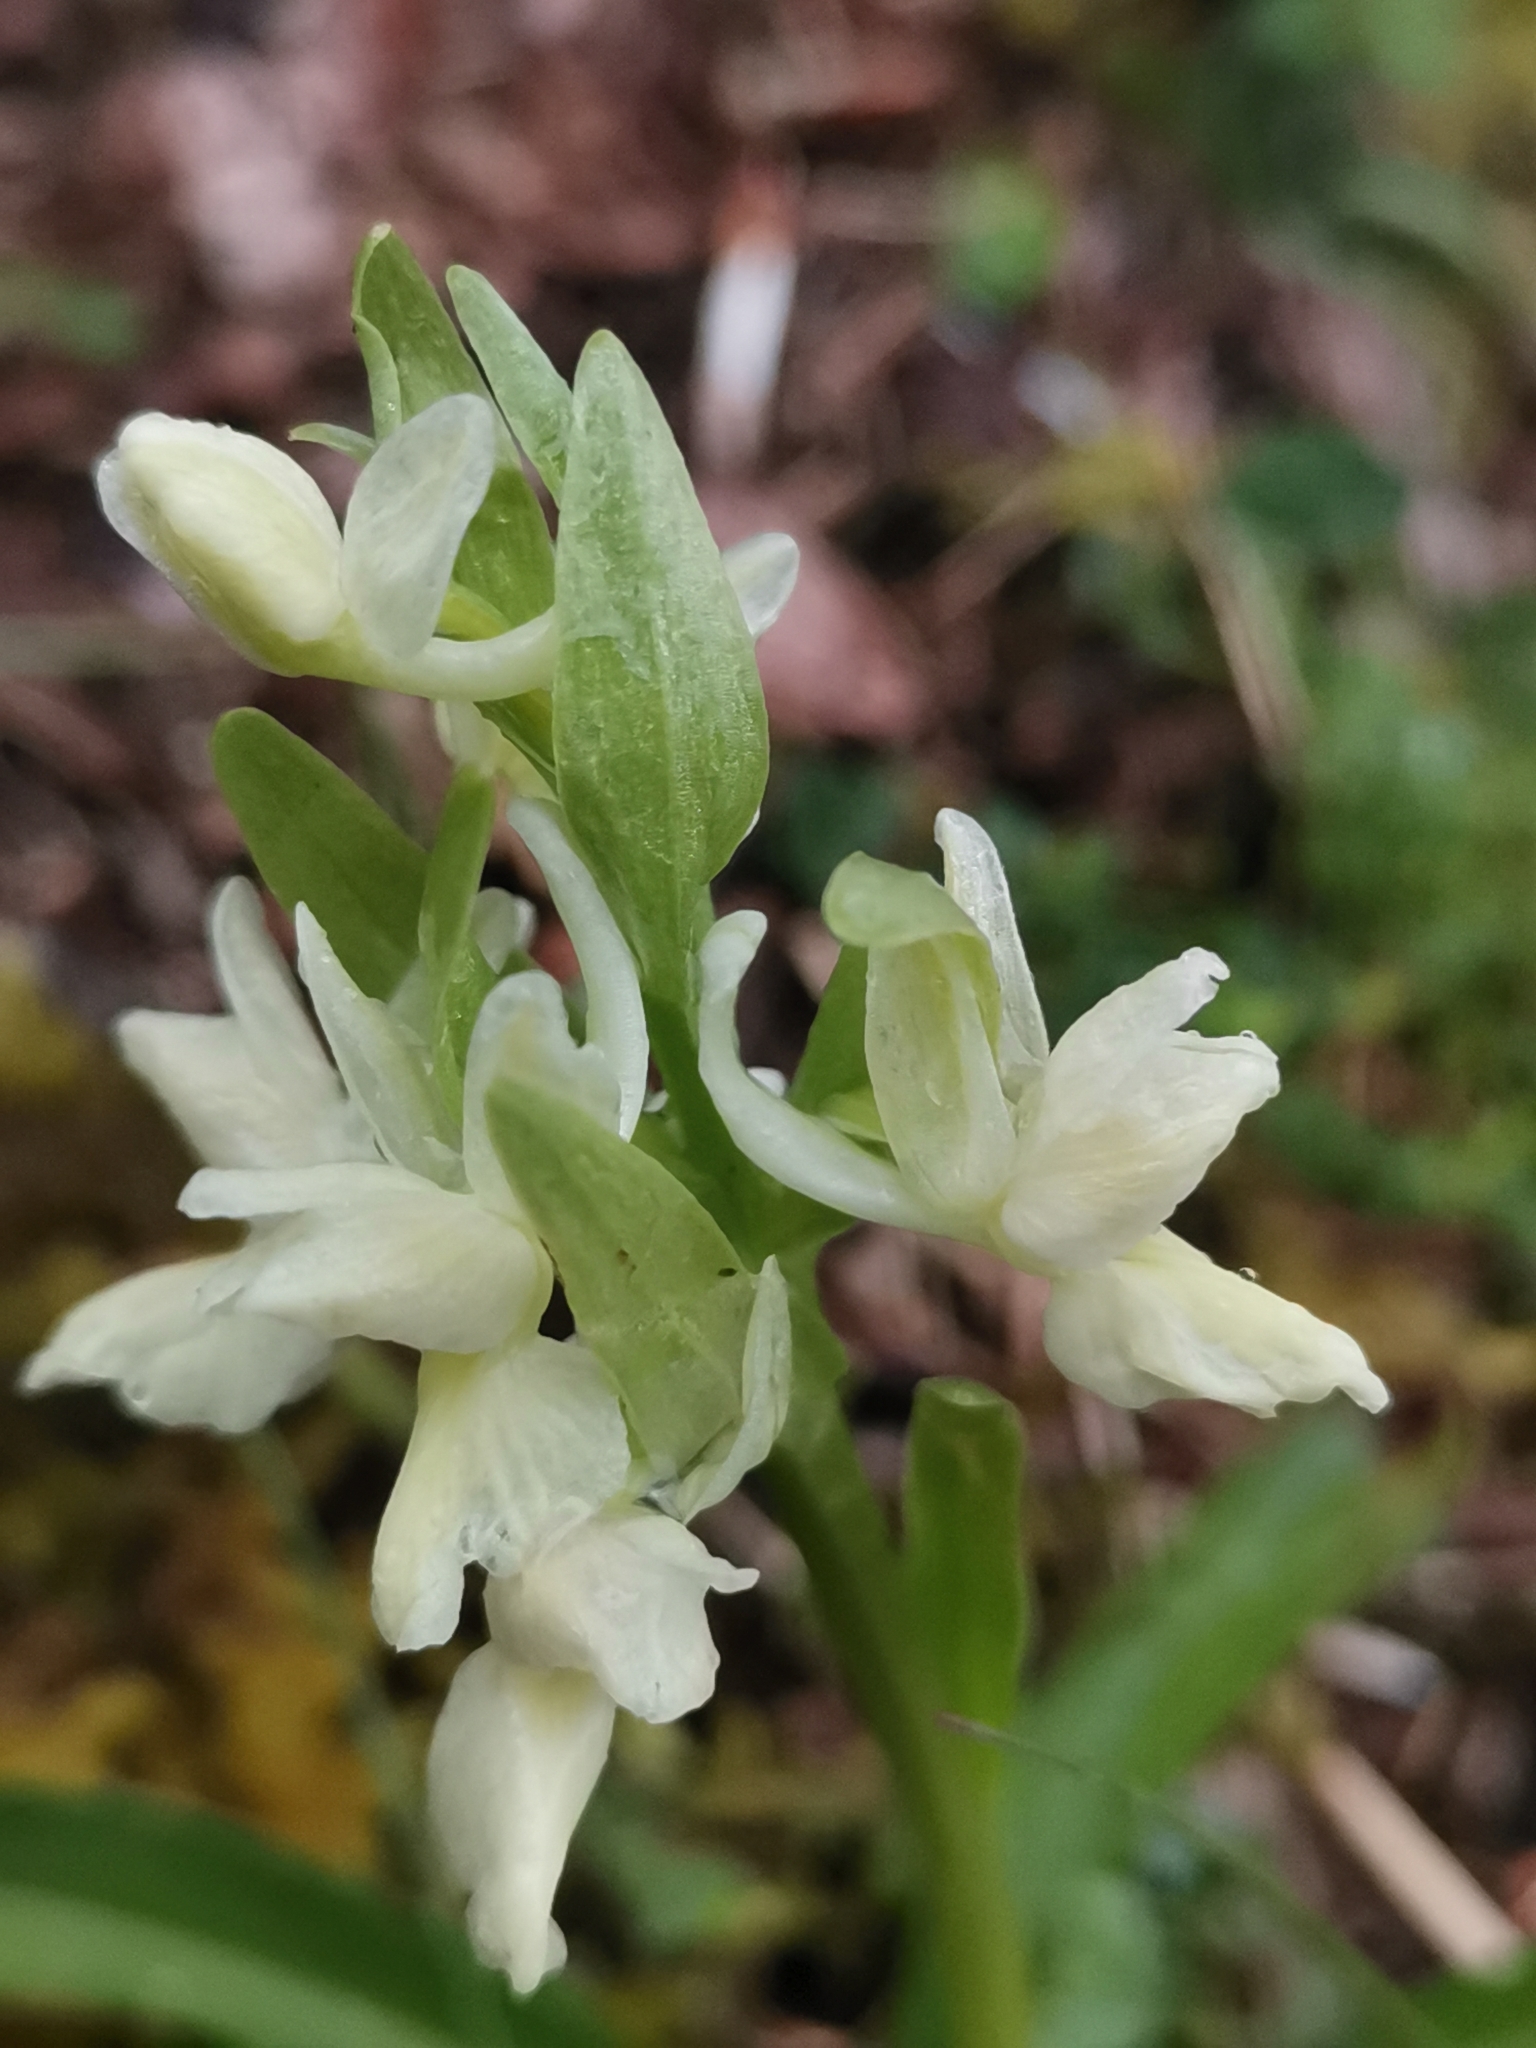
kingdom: Plantae
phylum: Tracheophyta
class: Liliopsida
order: Asparagales
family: Orchidaceae
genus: Dactylorhiza
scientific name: Dactylorhiza romana
